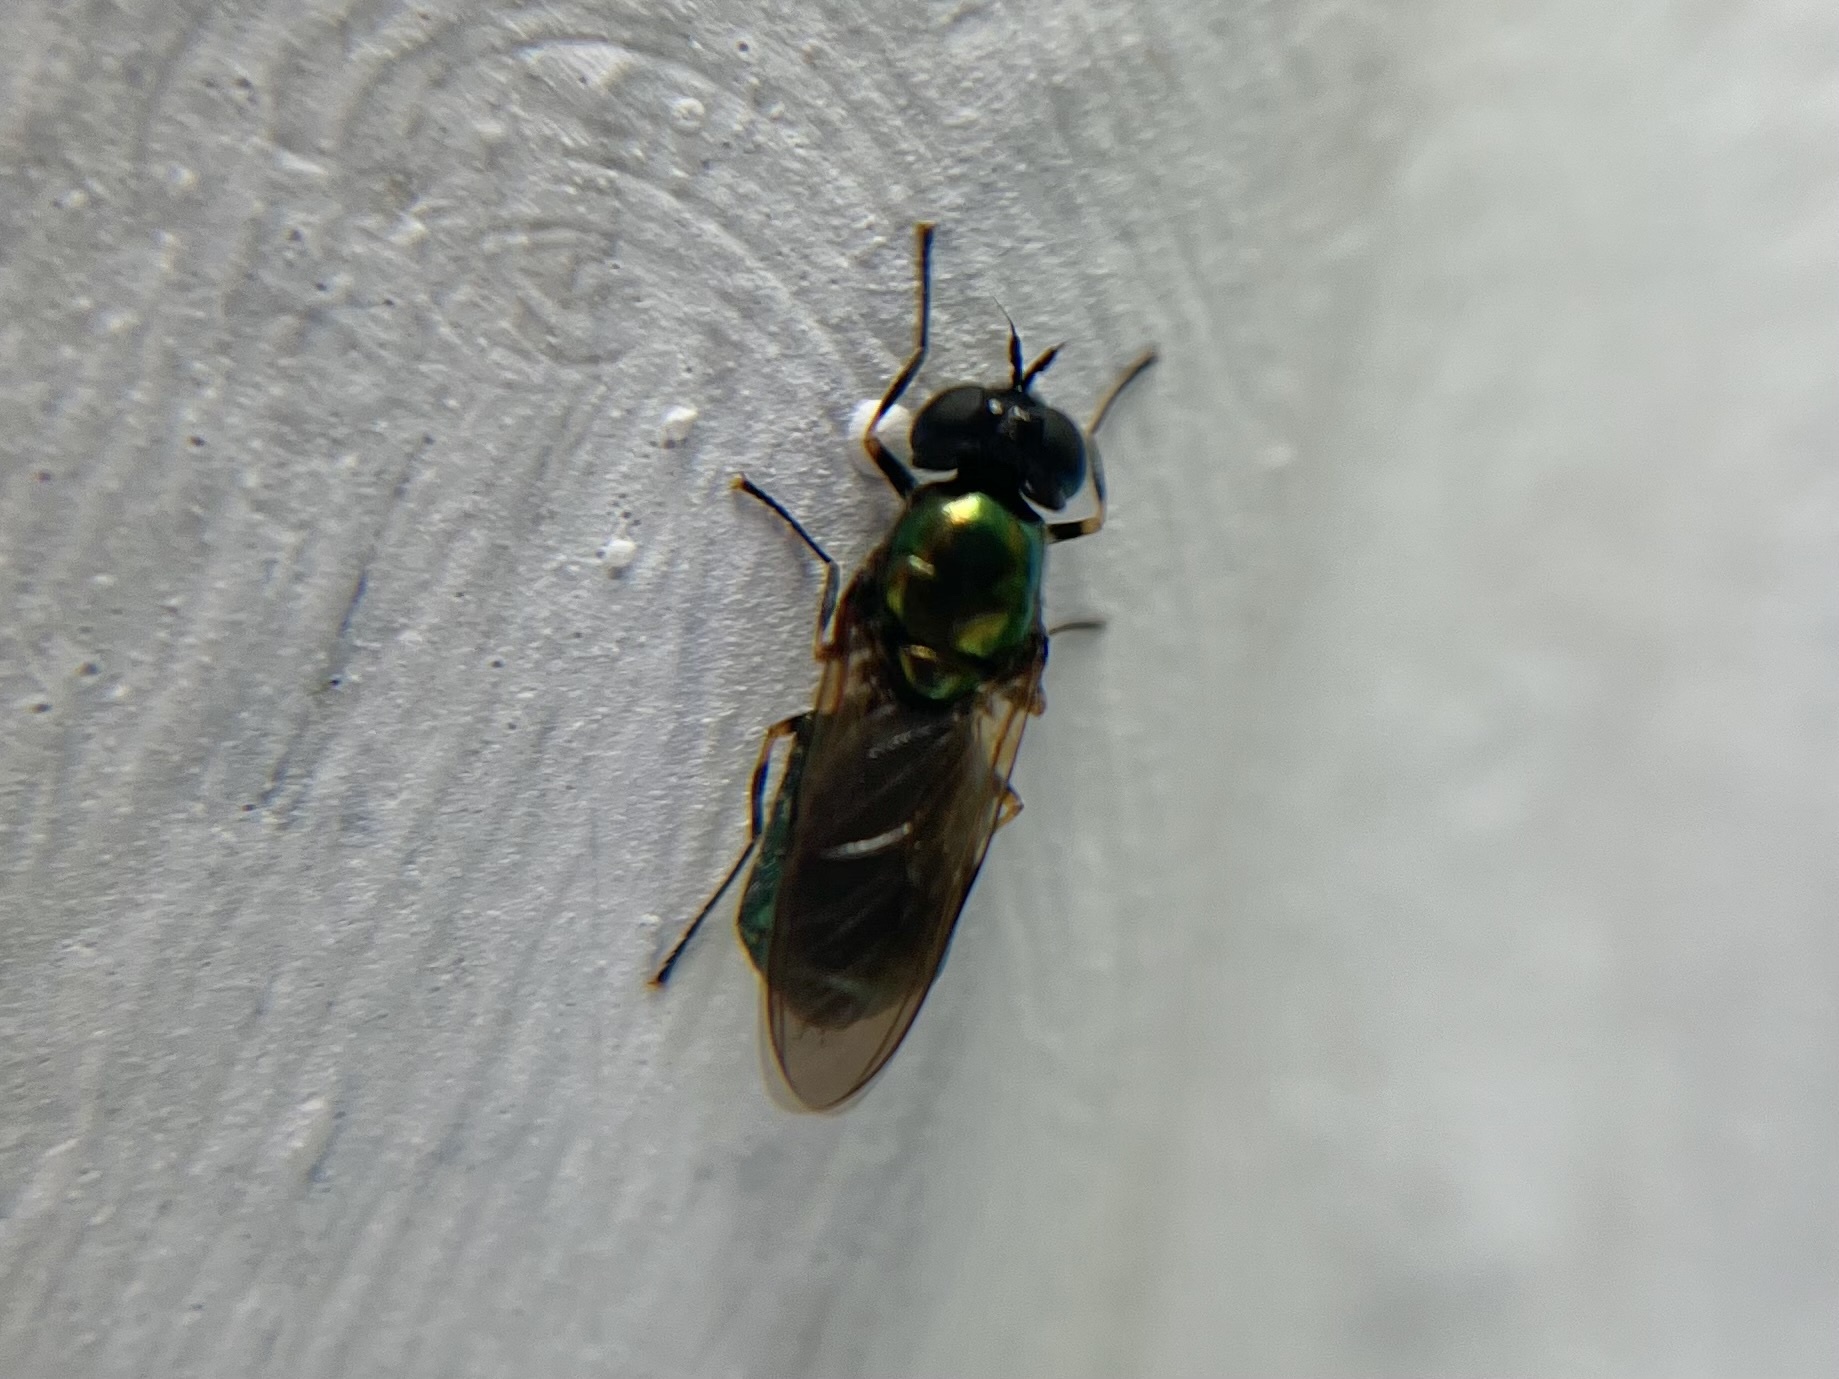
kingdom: Animalia
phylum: Arthropoda
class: Insecta
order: Diptera
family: Stratiomyidae
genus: Chloromyia
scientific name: Chloromyia formosa
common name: Soldier fly
